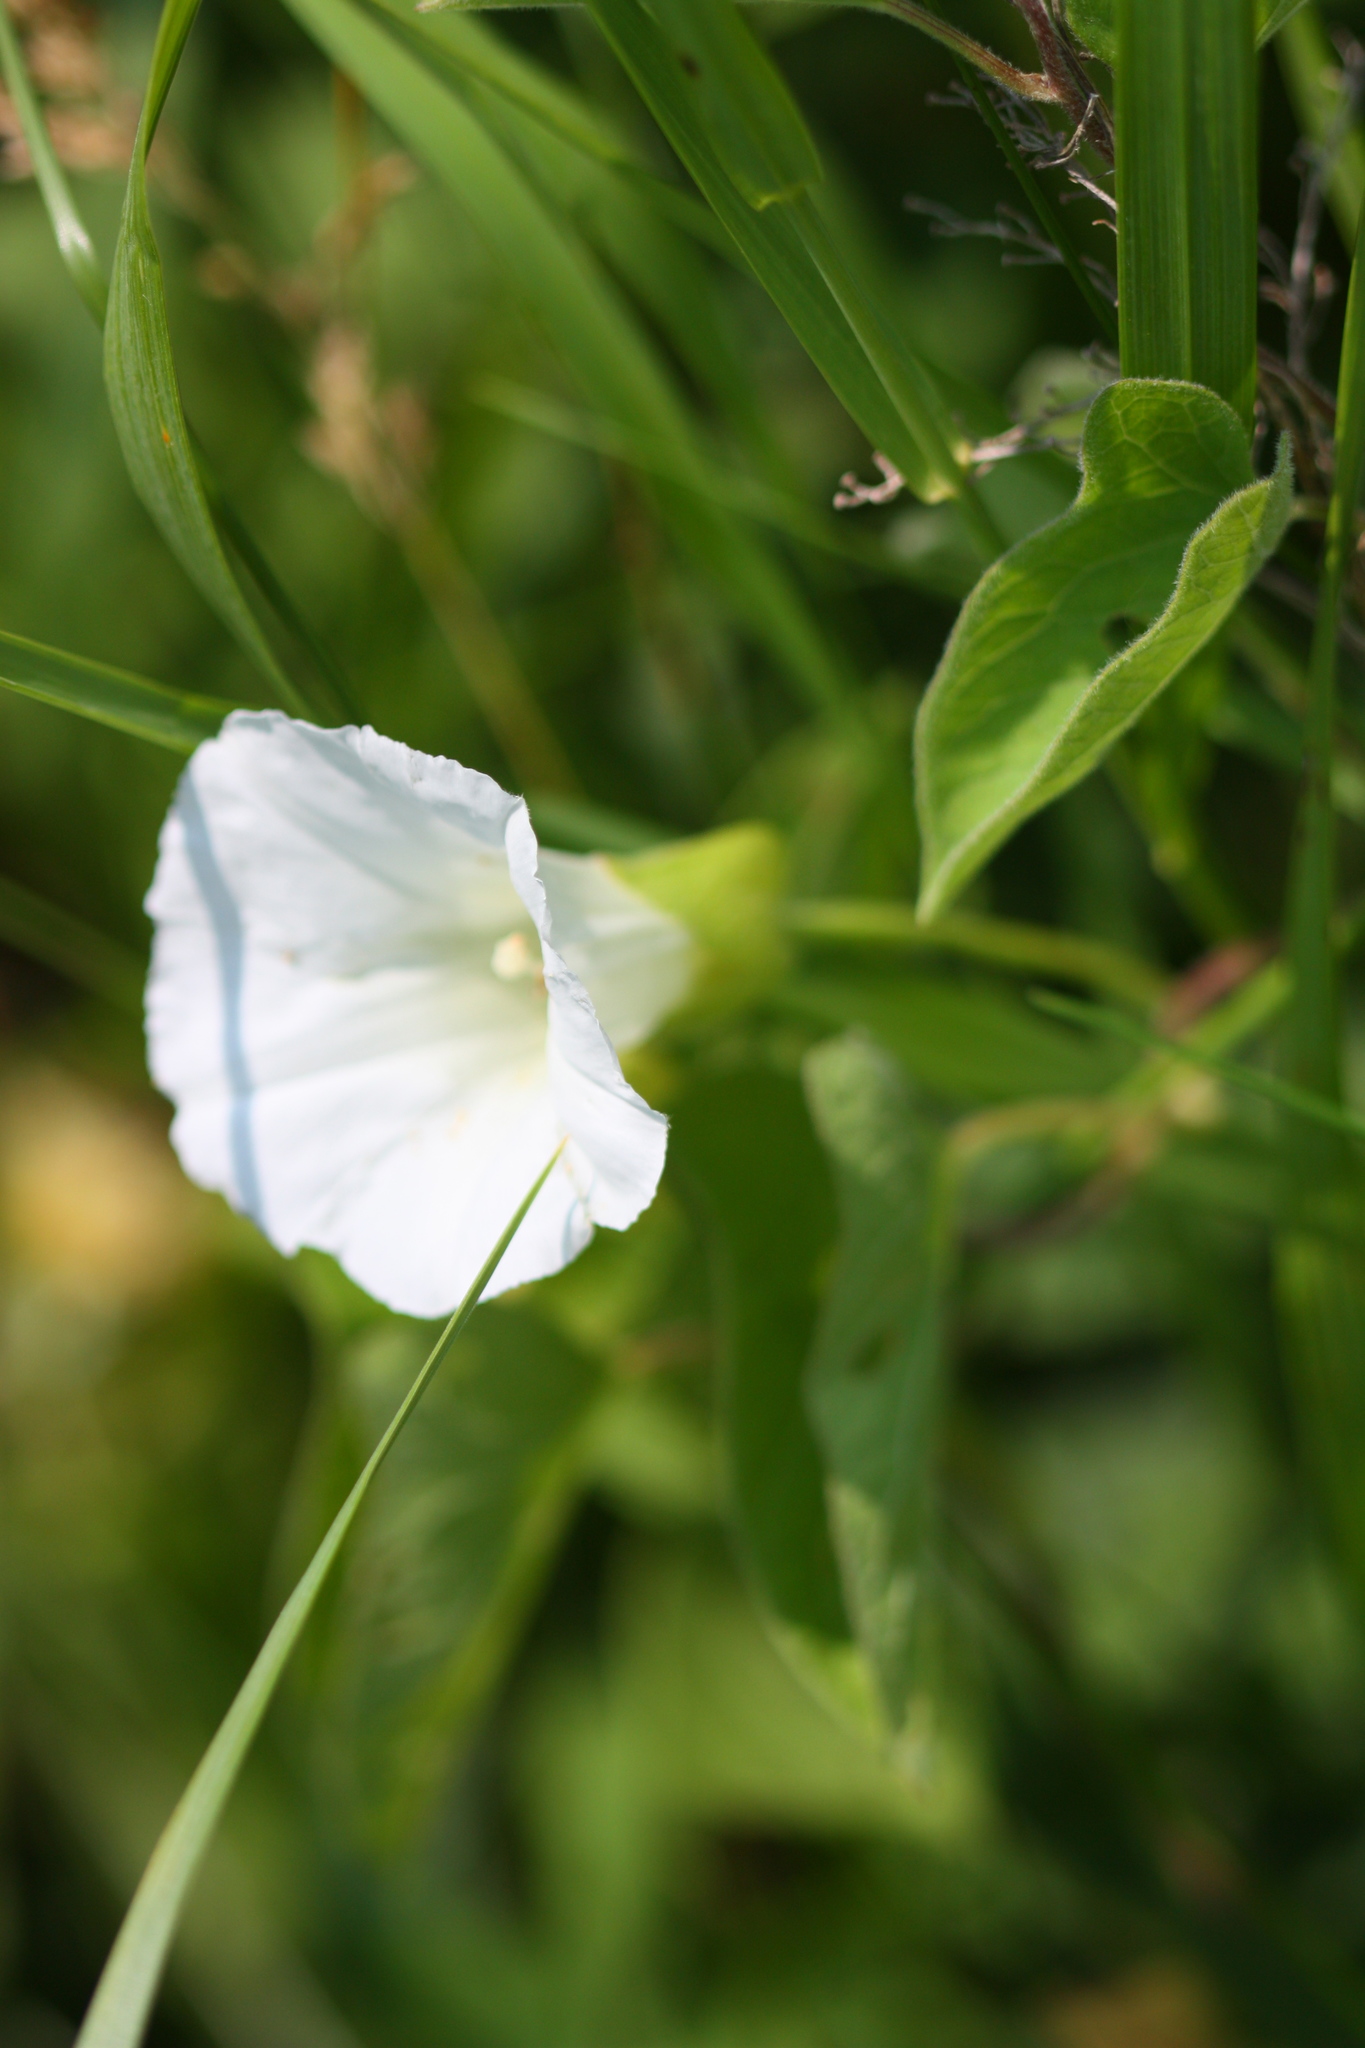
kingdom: Plantae
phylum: Tracheophyta
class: Magnoliopsida
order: Solanales
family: Convolvulaceae
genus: Calystegia
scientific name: Calystegia sepium
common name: Hedge bindweed
